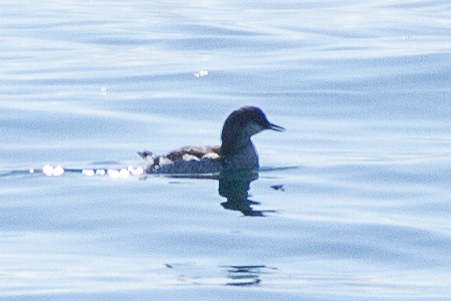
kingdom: Animalia
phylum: Chordata
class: Aves
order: Charadriiformes
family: Alcidae
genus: Cepphus
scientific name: Cepphus columba
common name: Pigeon guillemot
